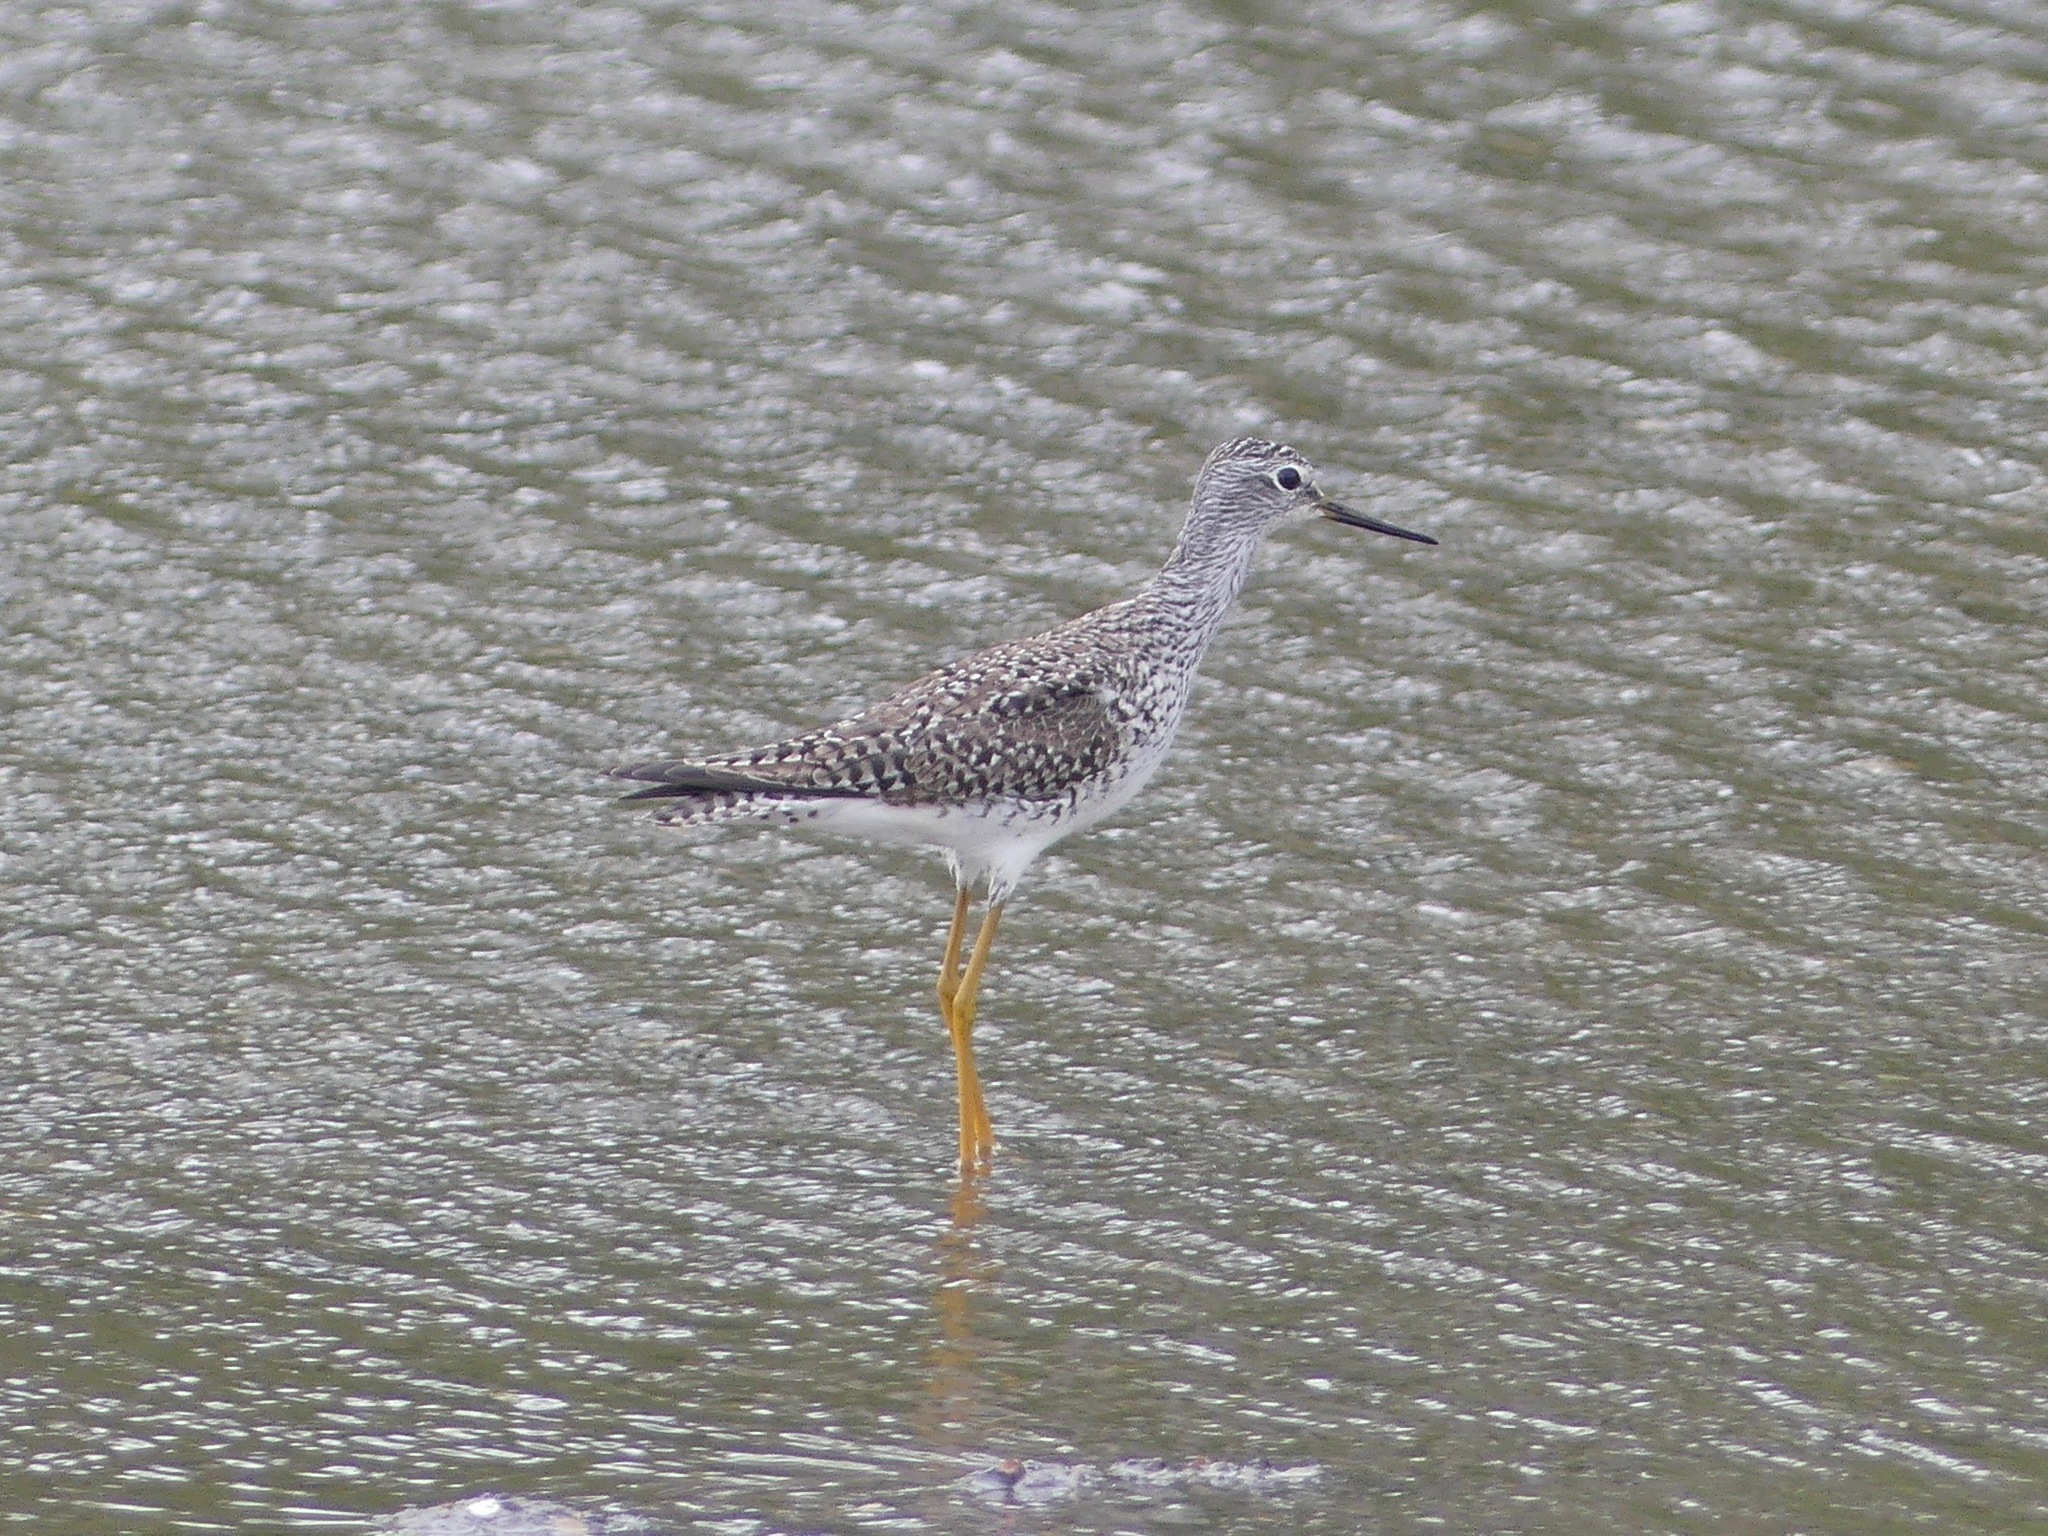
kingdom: Animalia
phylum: Chordata
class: Aves
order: Charadriiformes
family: Scolopacidae
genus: Tringa
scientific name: Tringa flavipes
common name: Lesser yellowlegs
